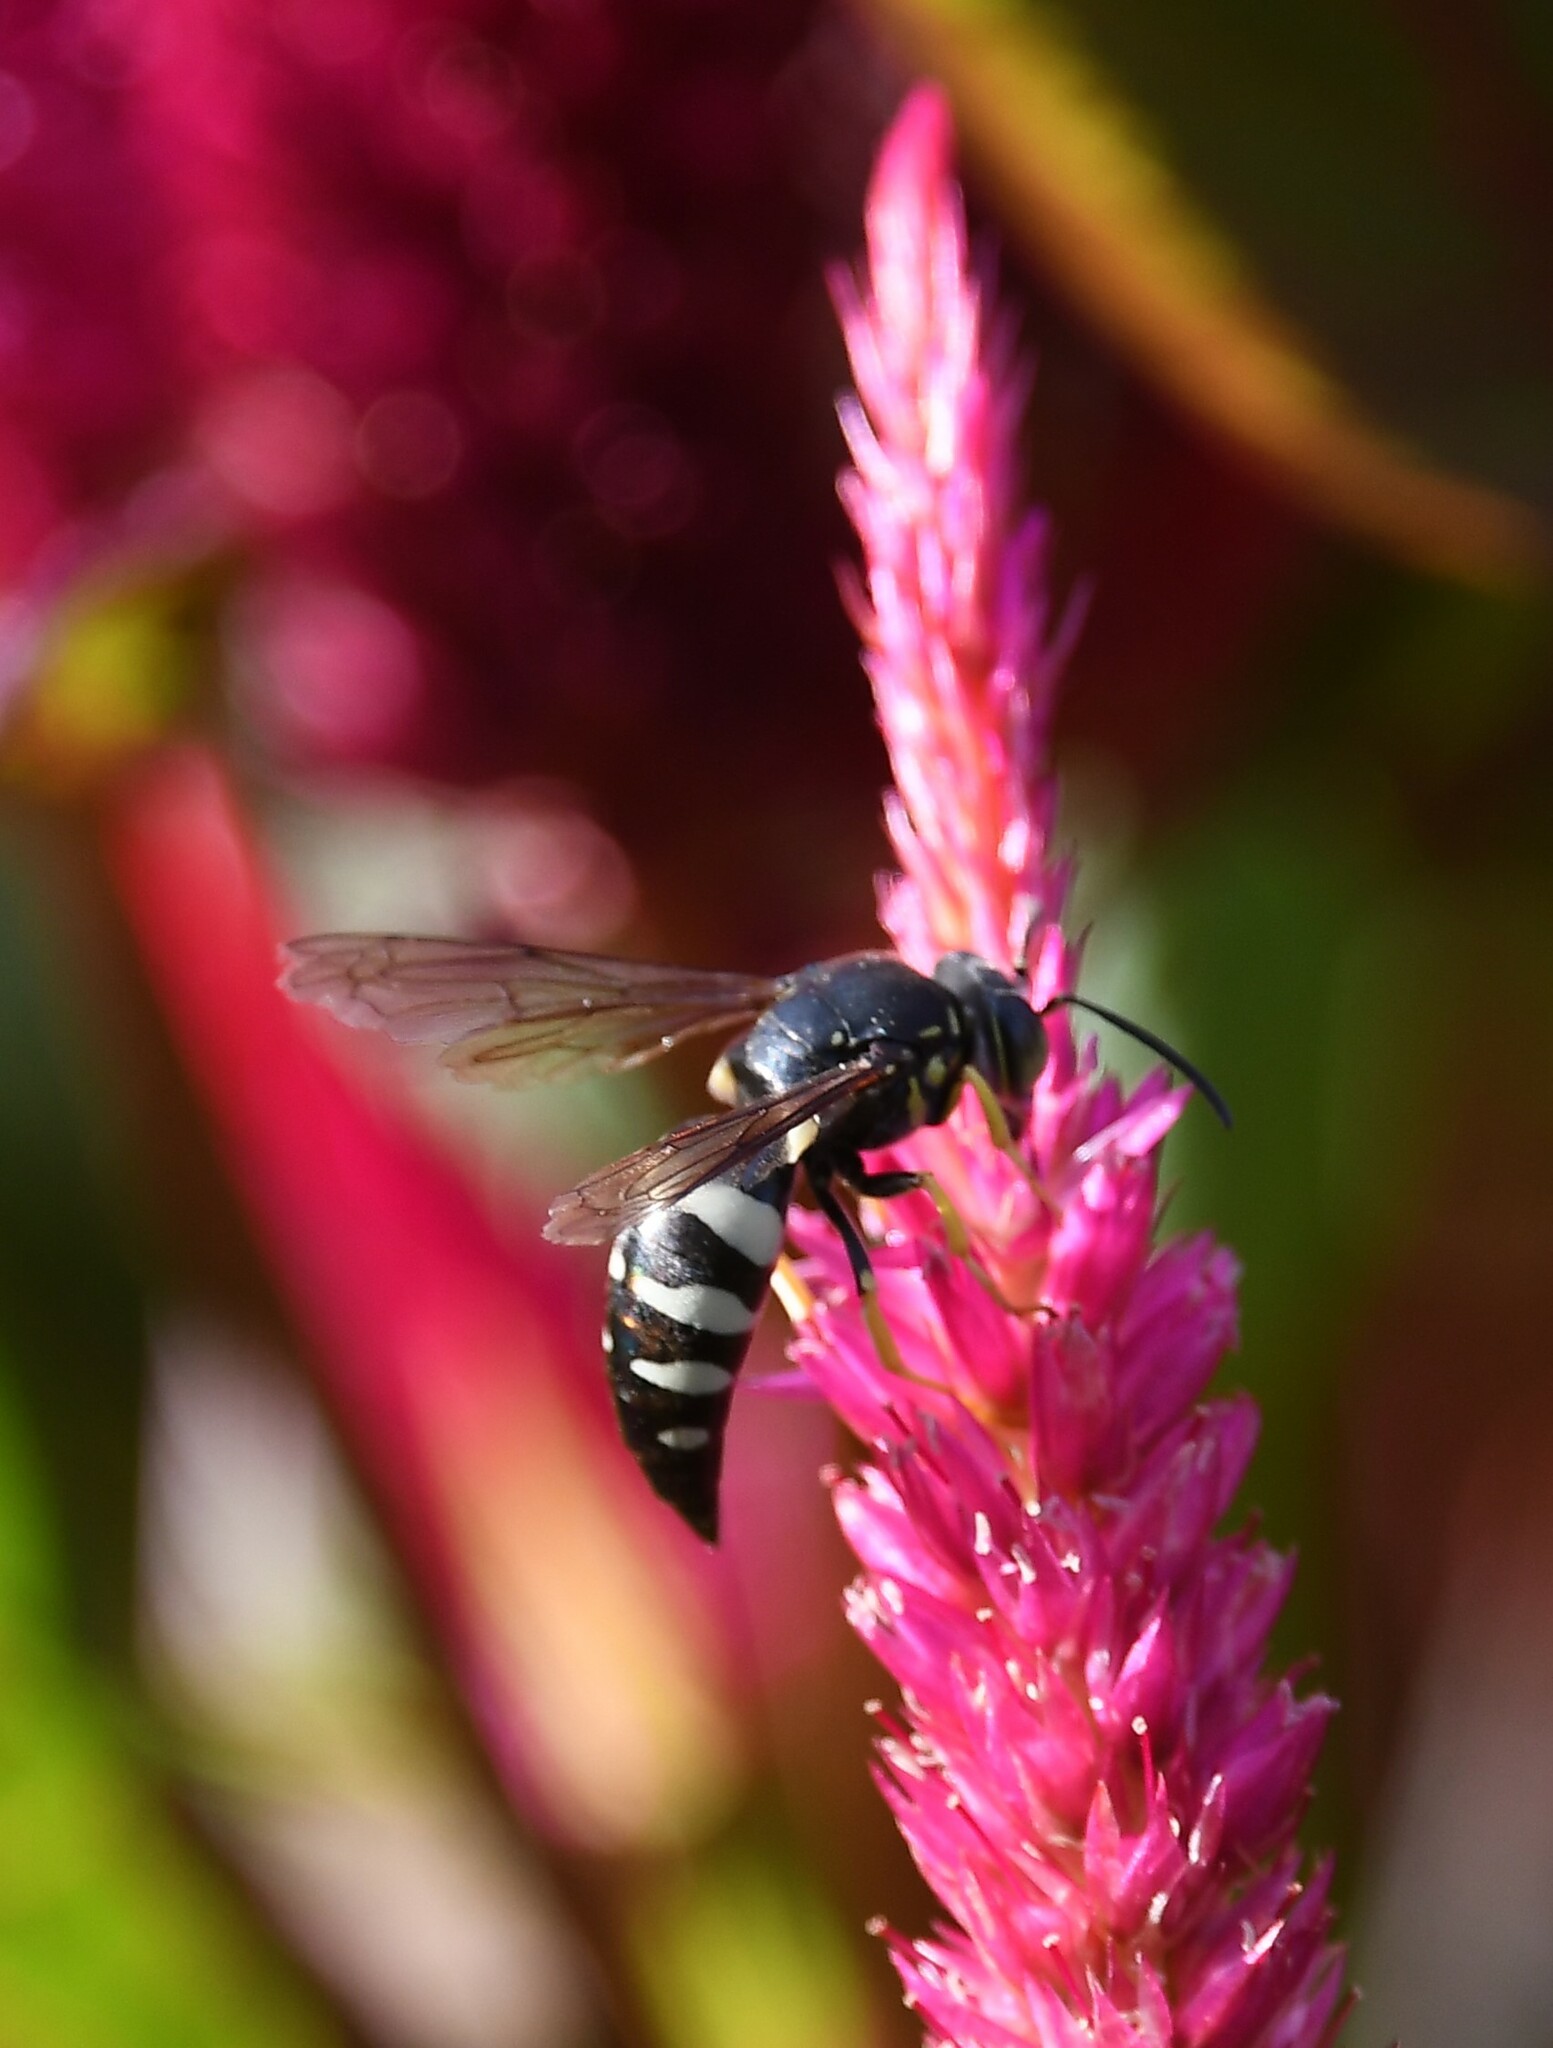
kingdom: Animalia
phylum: Arthropoda
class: Insecta
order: Hymenoptera
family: Crabronidae
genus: Bicyrtes
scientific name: Bicyrtes quadrifasciatus
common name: Four-banded stink bug hunter wasp
